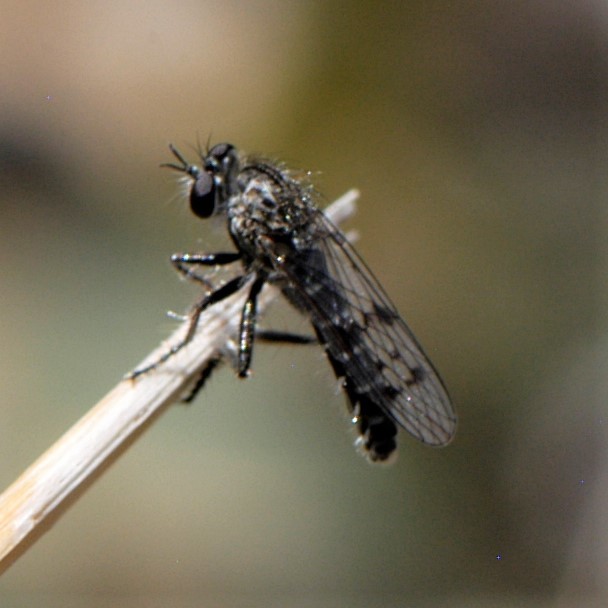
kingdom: Animalia
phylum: Arthropoda
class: Insecta
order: Diptera
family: Asilidae
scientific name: Asilidae
